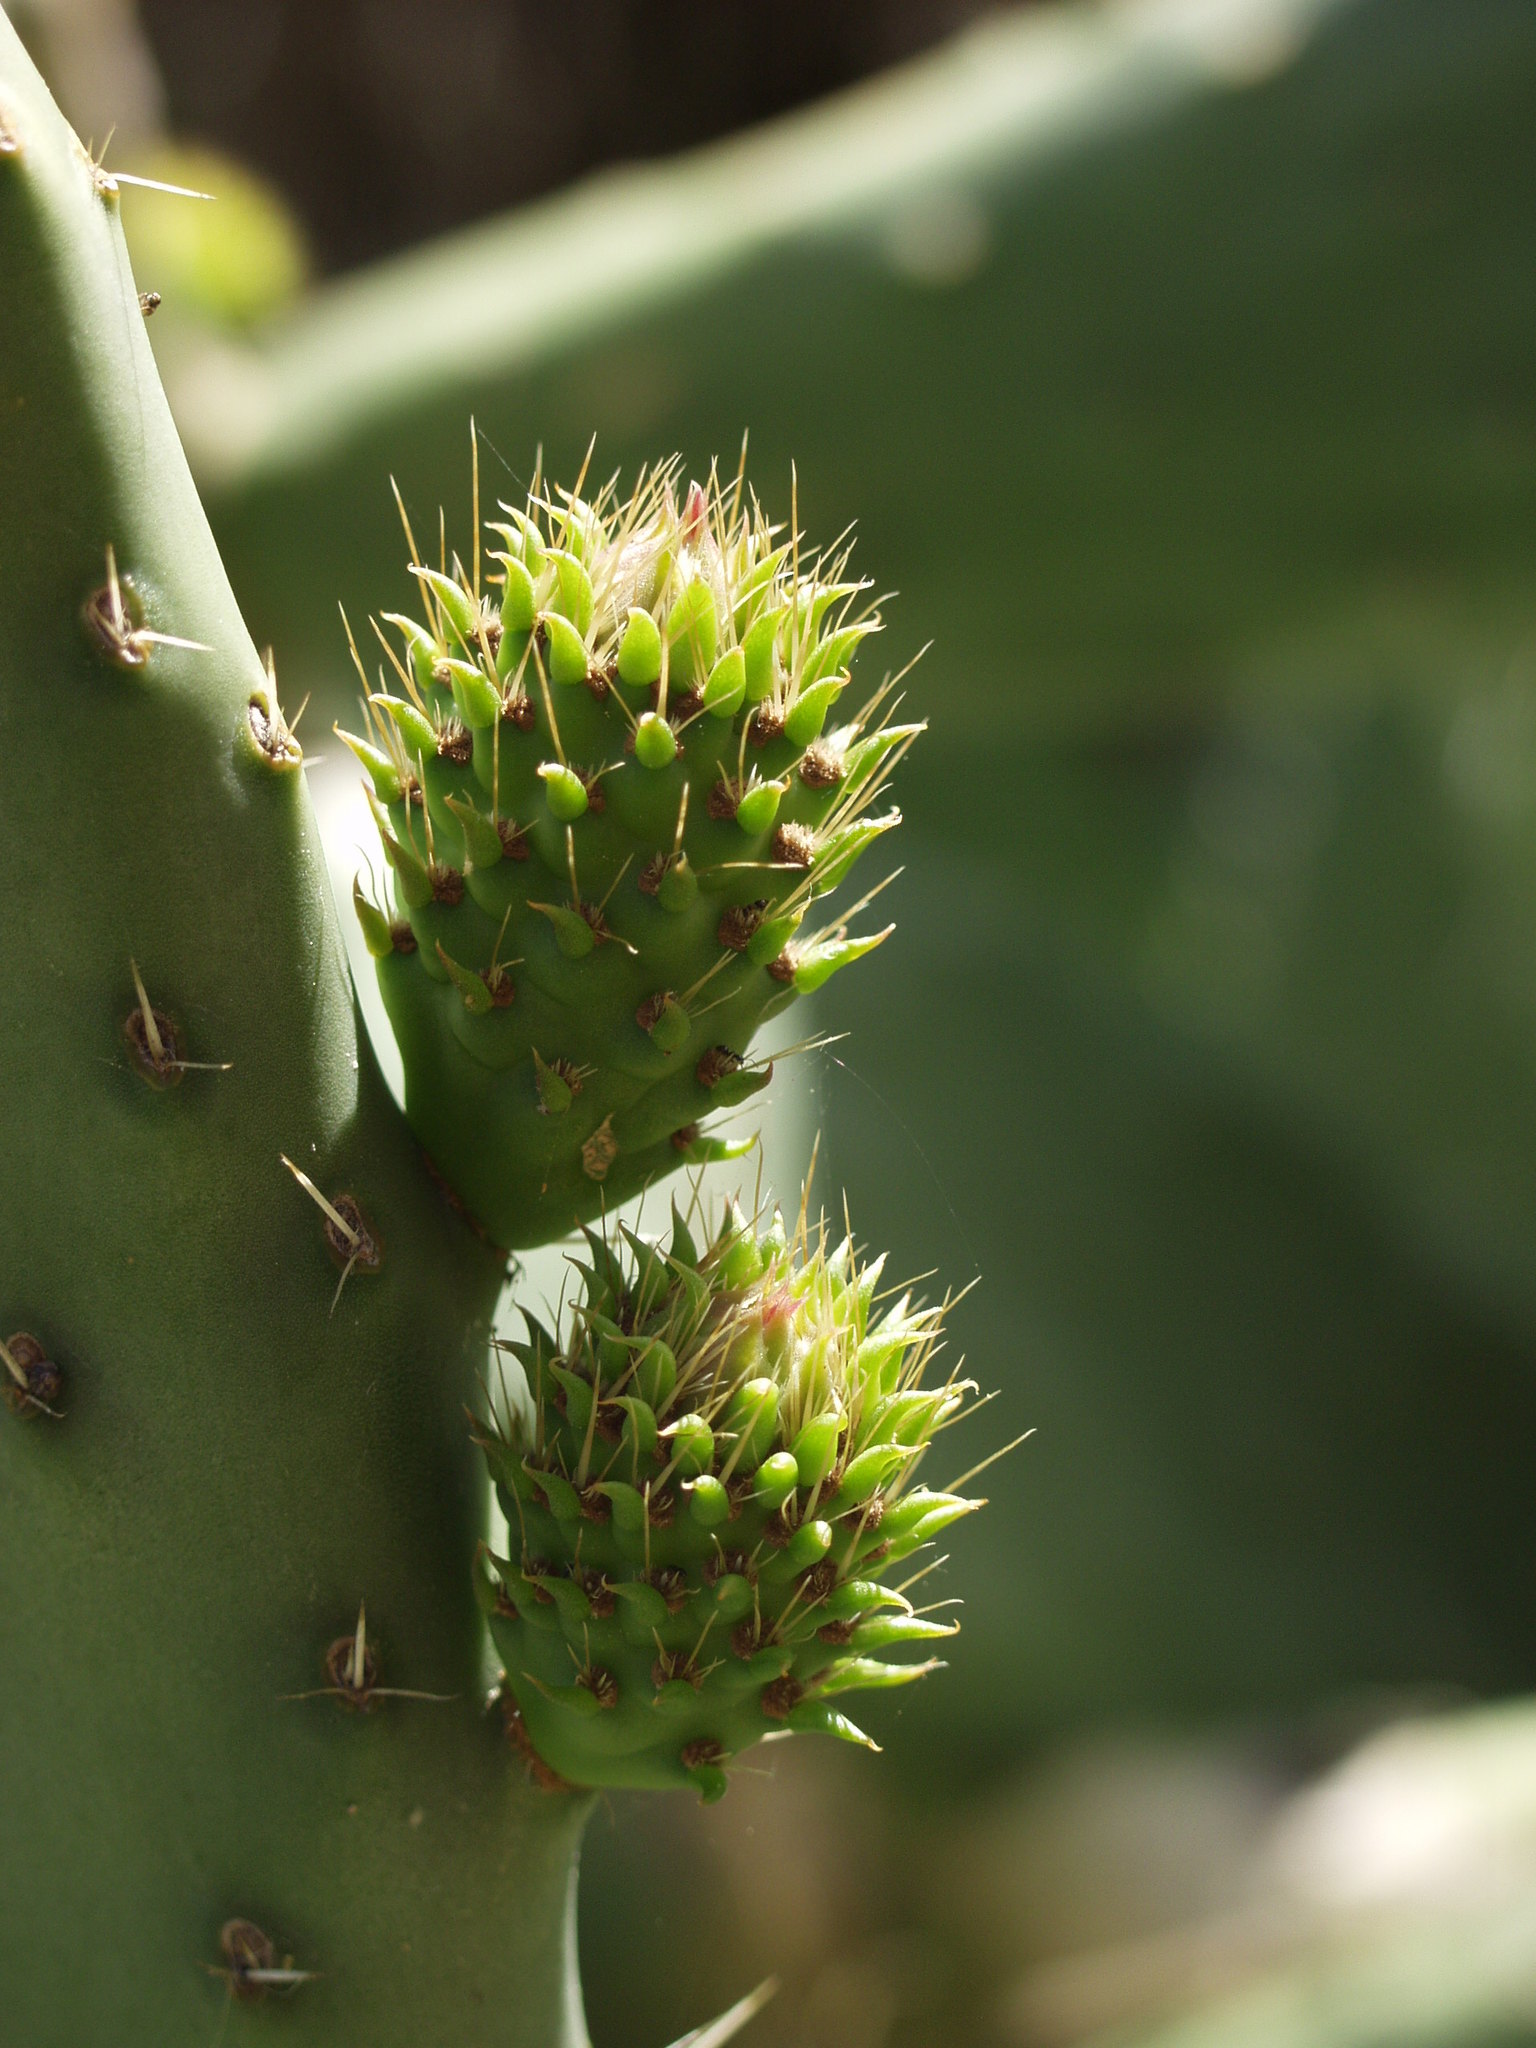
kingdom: Plantae
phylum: Tracheophyta
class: Magnoliopsida
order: Caryophyllales
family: Cactaceae
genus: Opuntia
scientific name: Opuntia ficus-indica
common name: Barbary fig
